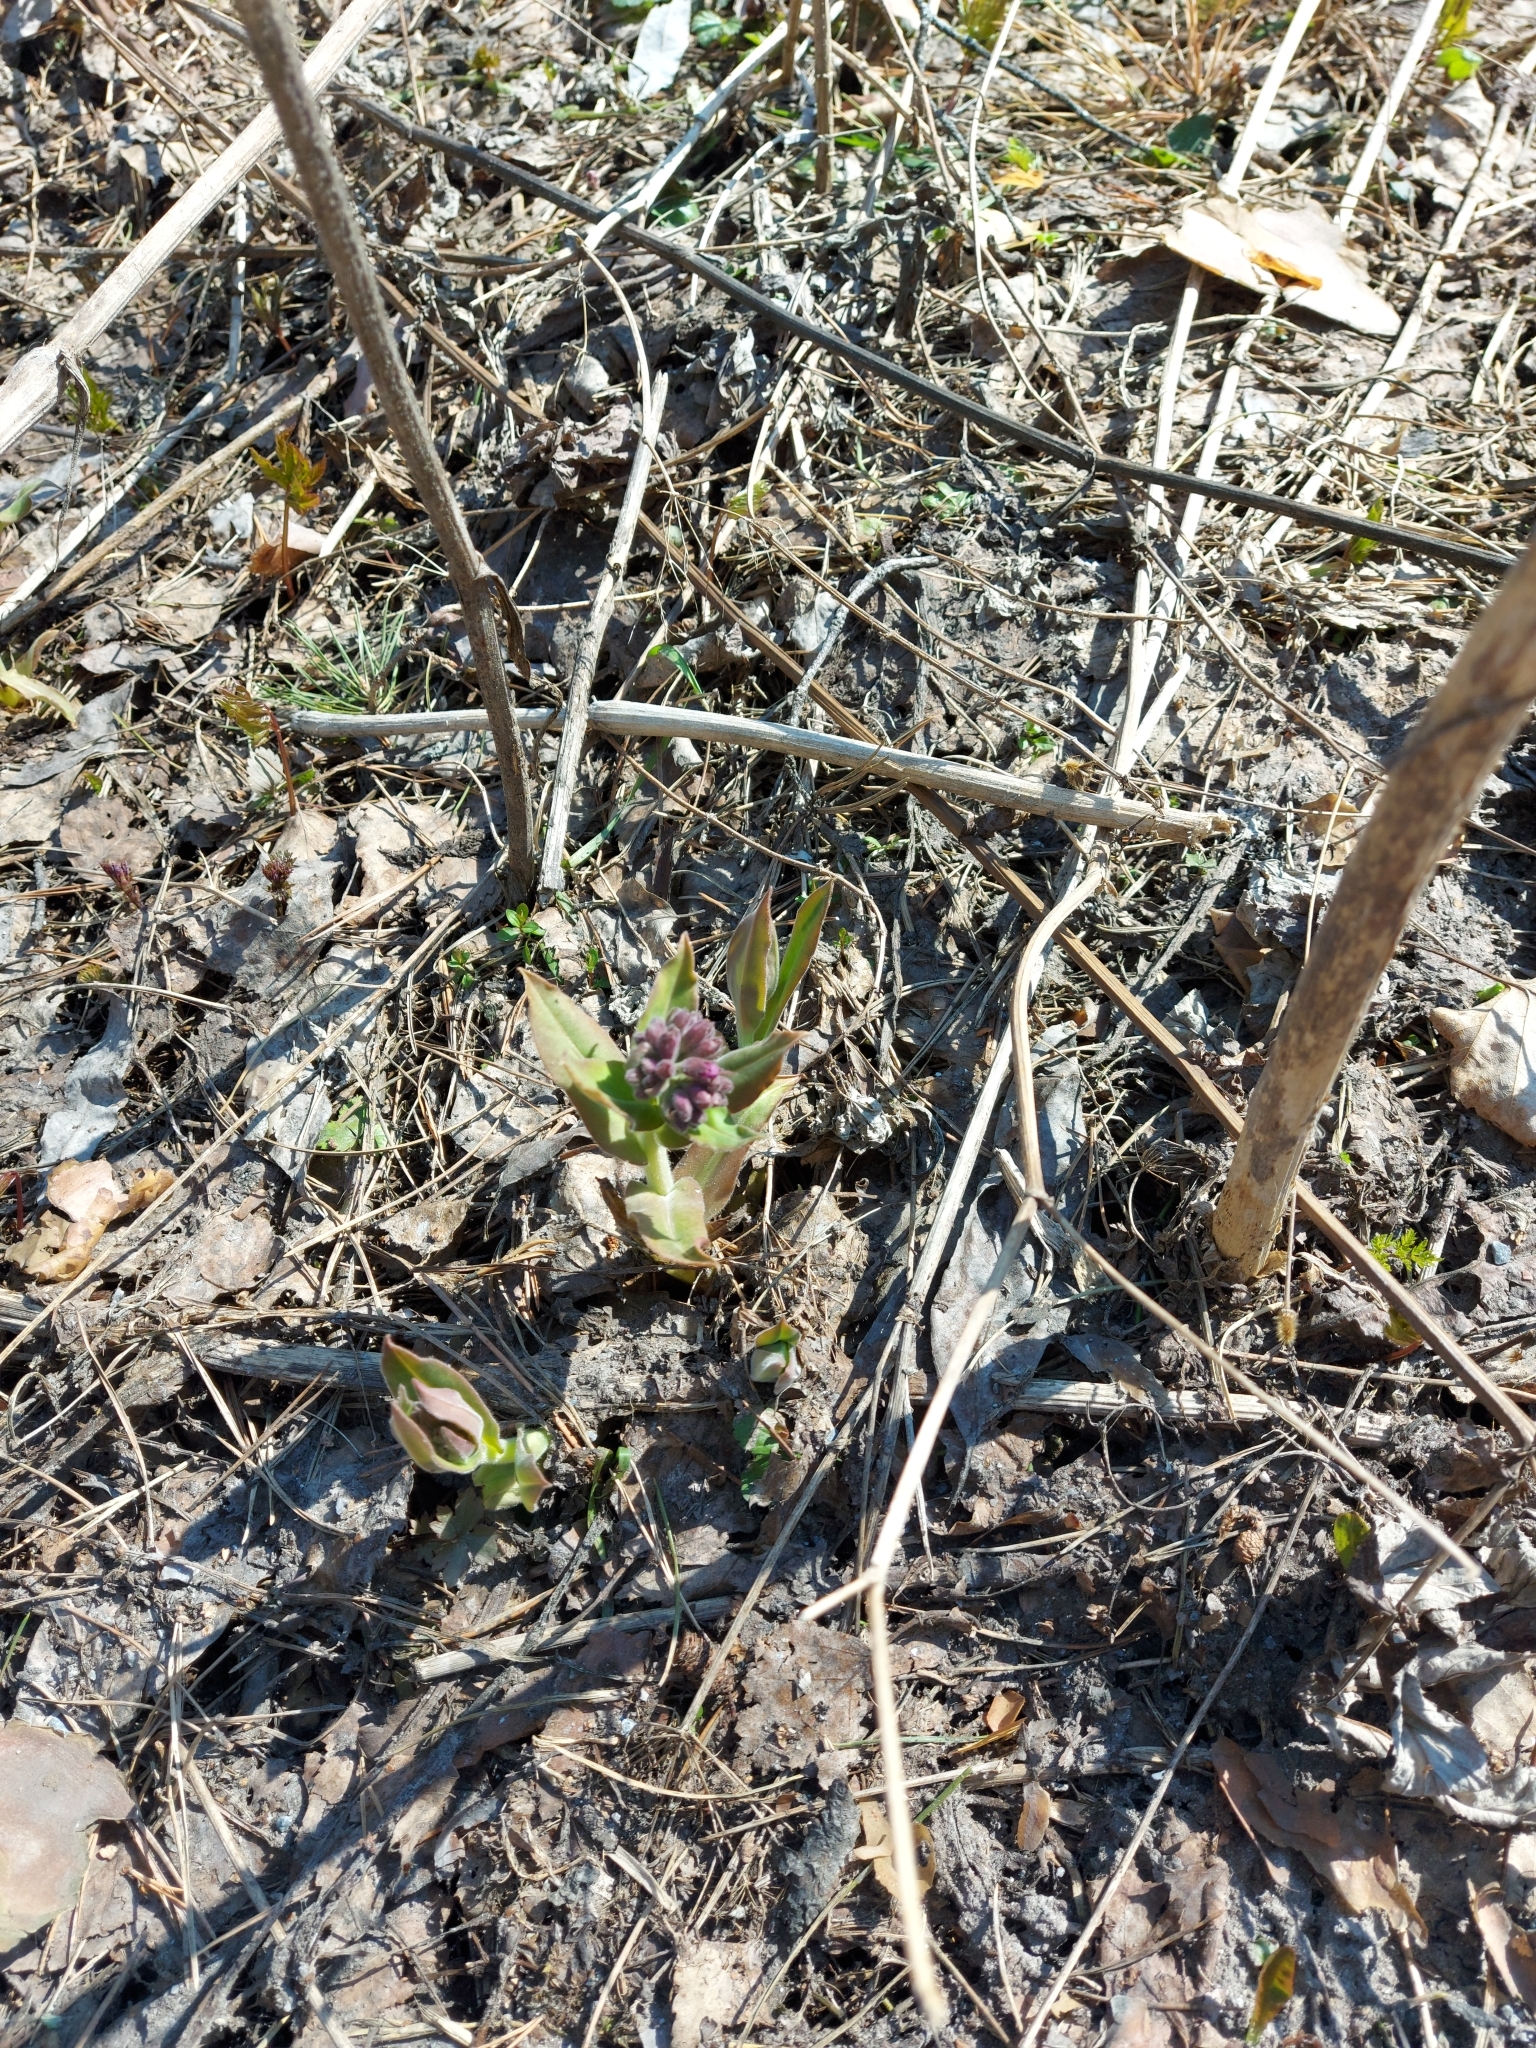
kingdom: Plantae
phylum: Tracheophyta
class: Magnoliopsida
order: Boraginales
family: Boraginaceae
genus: Pulmonaria
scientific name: Pulmonaria mollis
